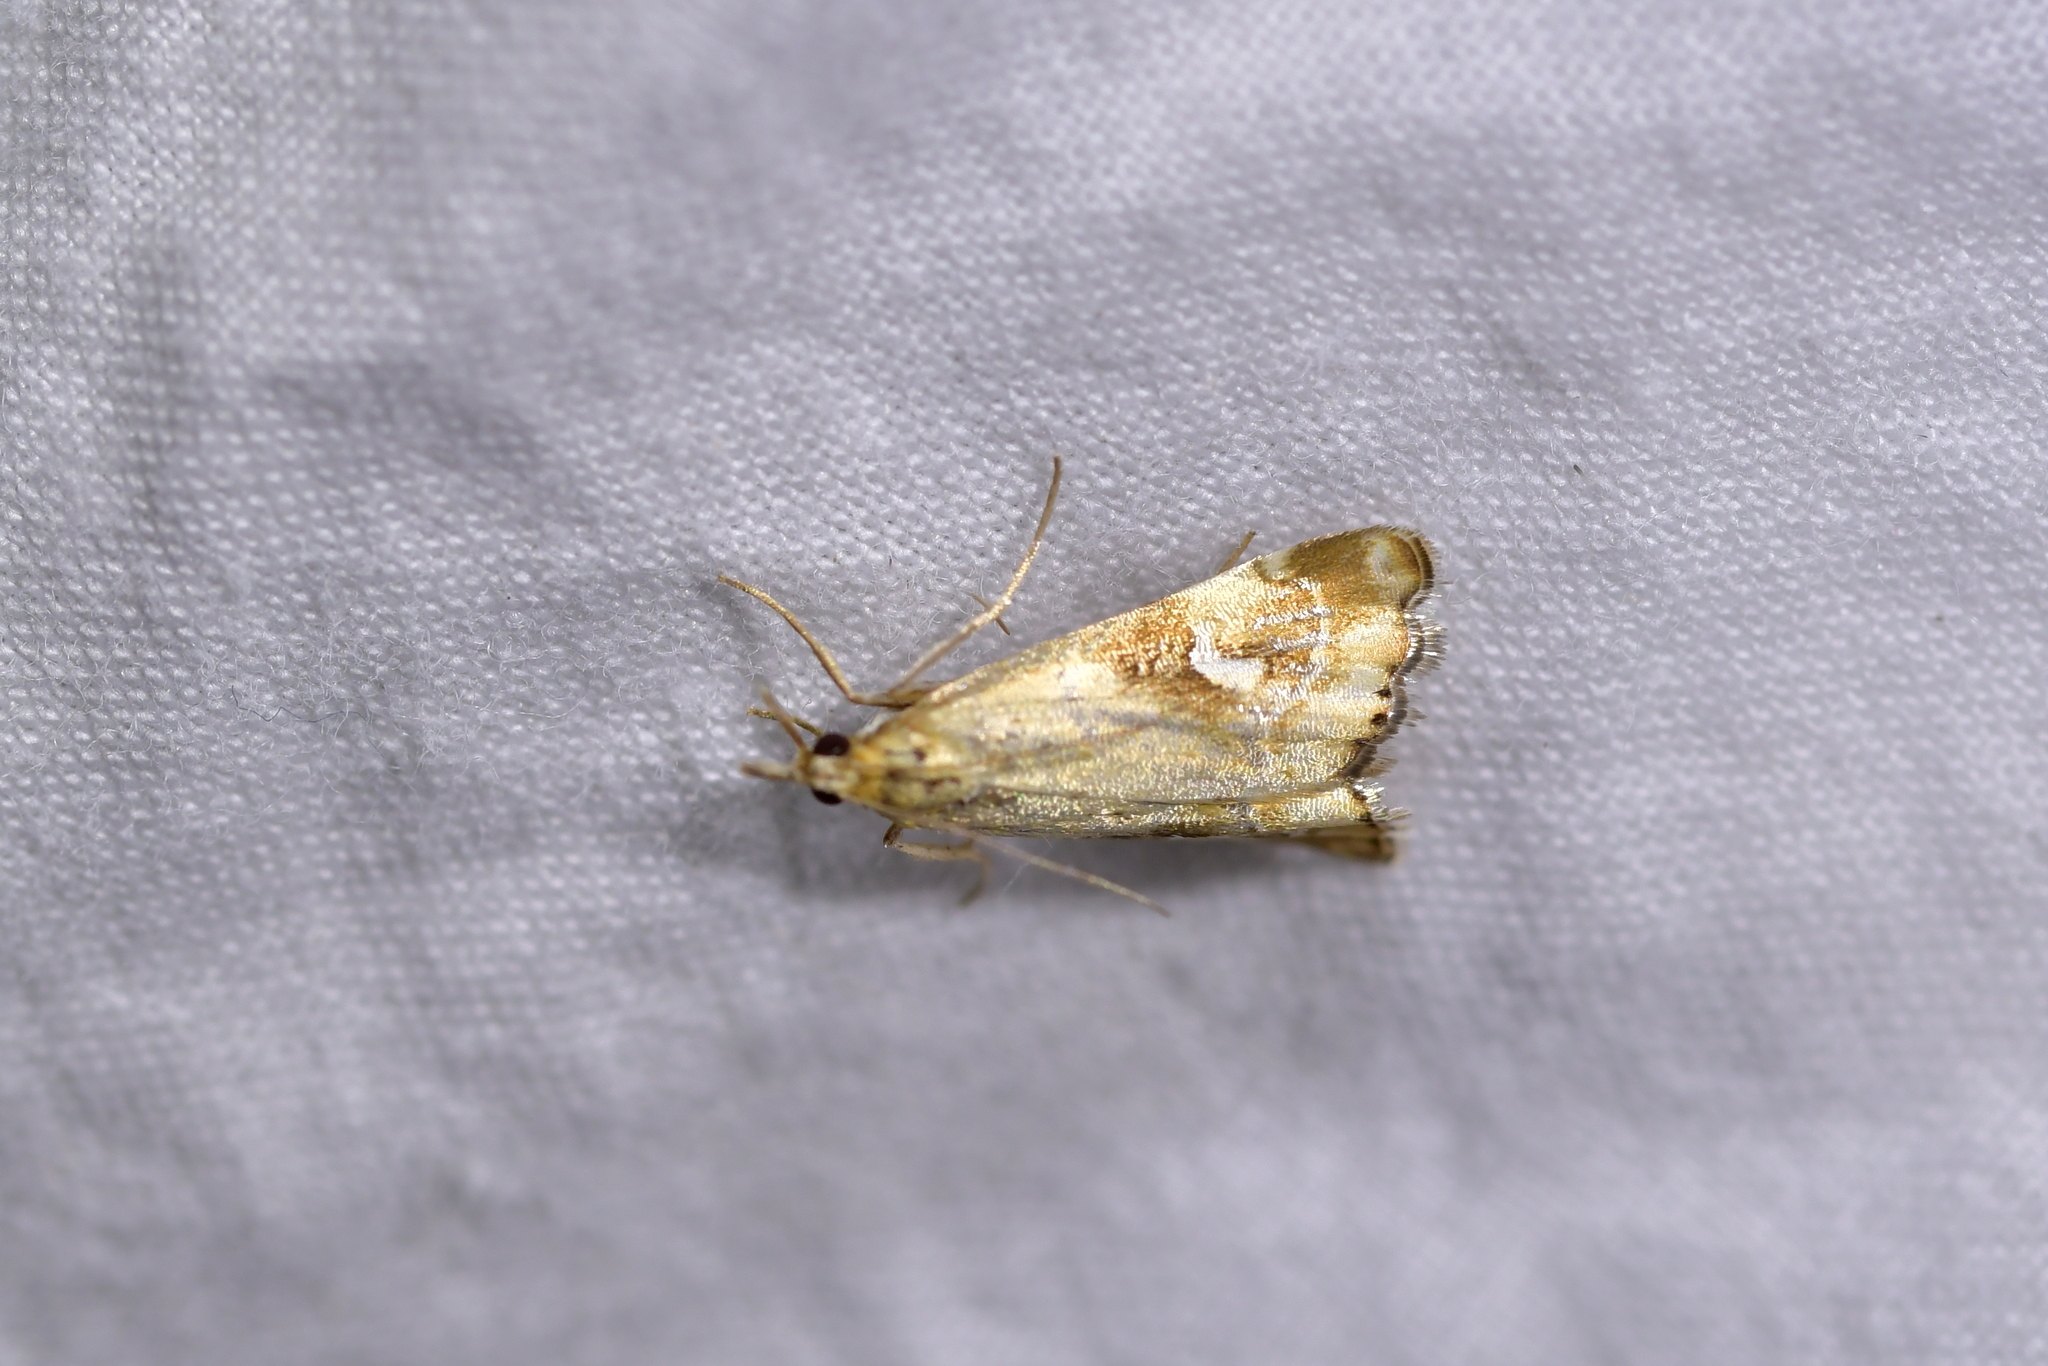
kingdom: Animalia
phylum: Arthropoda
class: Insecta
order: Lepidoptera
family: Crambidae
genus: Glaucocharis
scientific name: Glaucocharis lepidella
